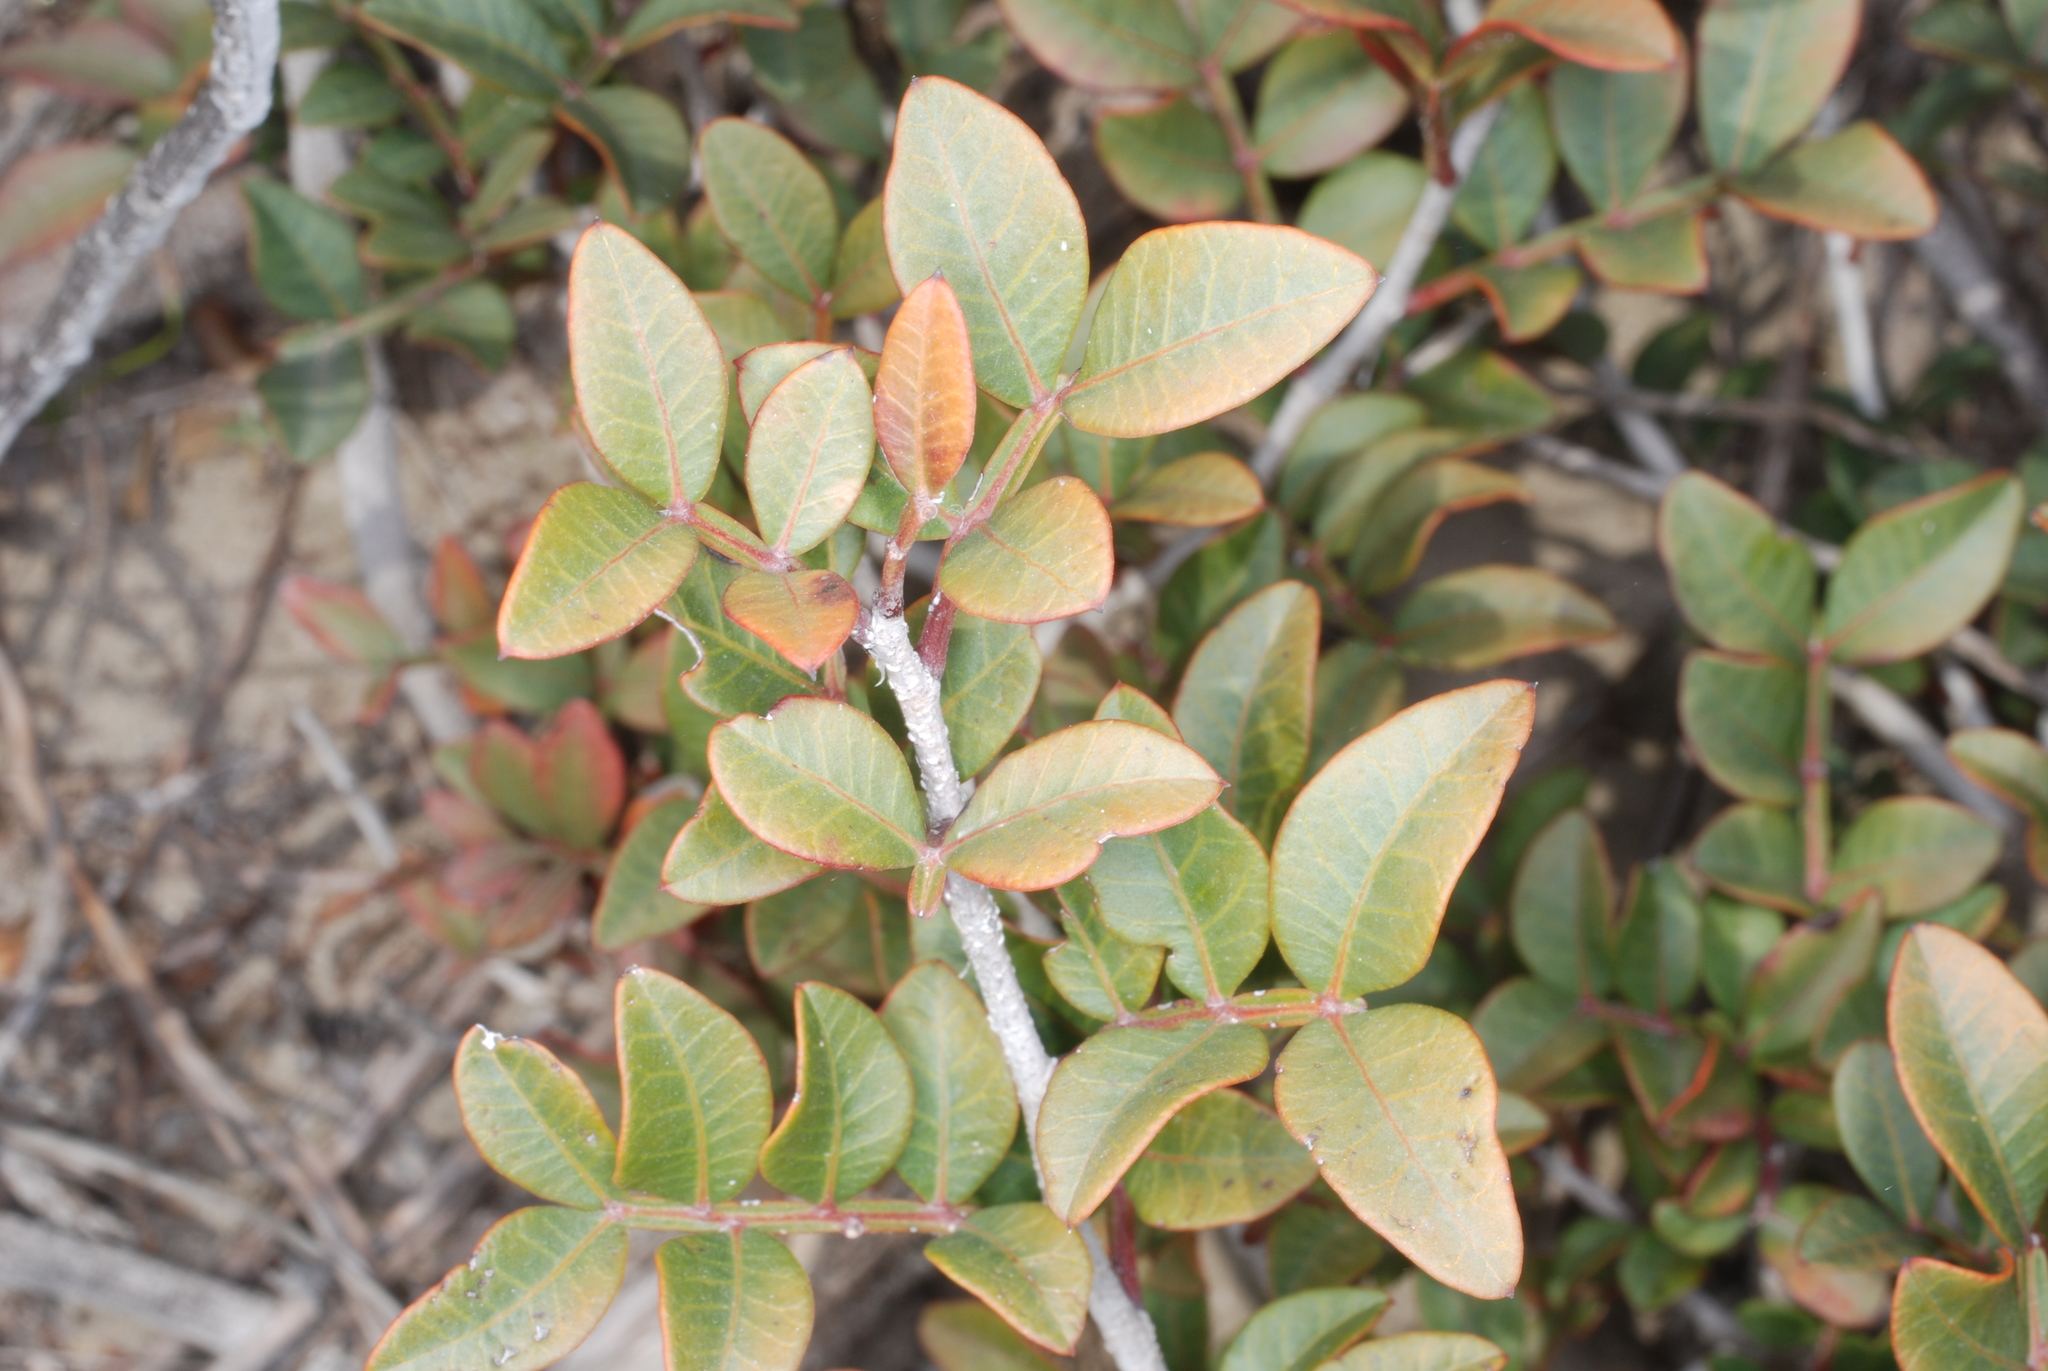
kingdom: Plantae
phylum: Tracheophyta
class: Magnoliopsida
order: Sapindales
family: Anacardiaceae
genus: Pistacia
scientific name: Pistacia lentiscus
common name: Lentisk
